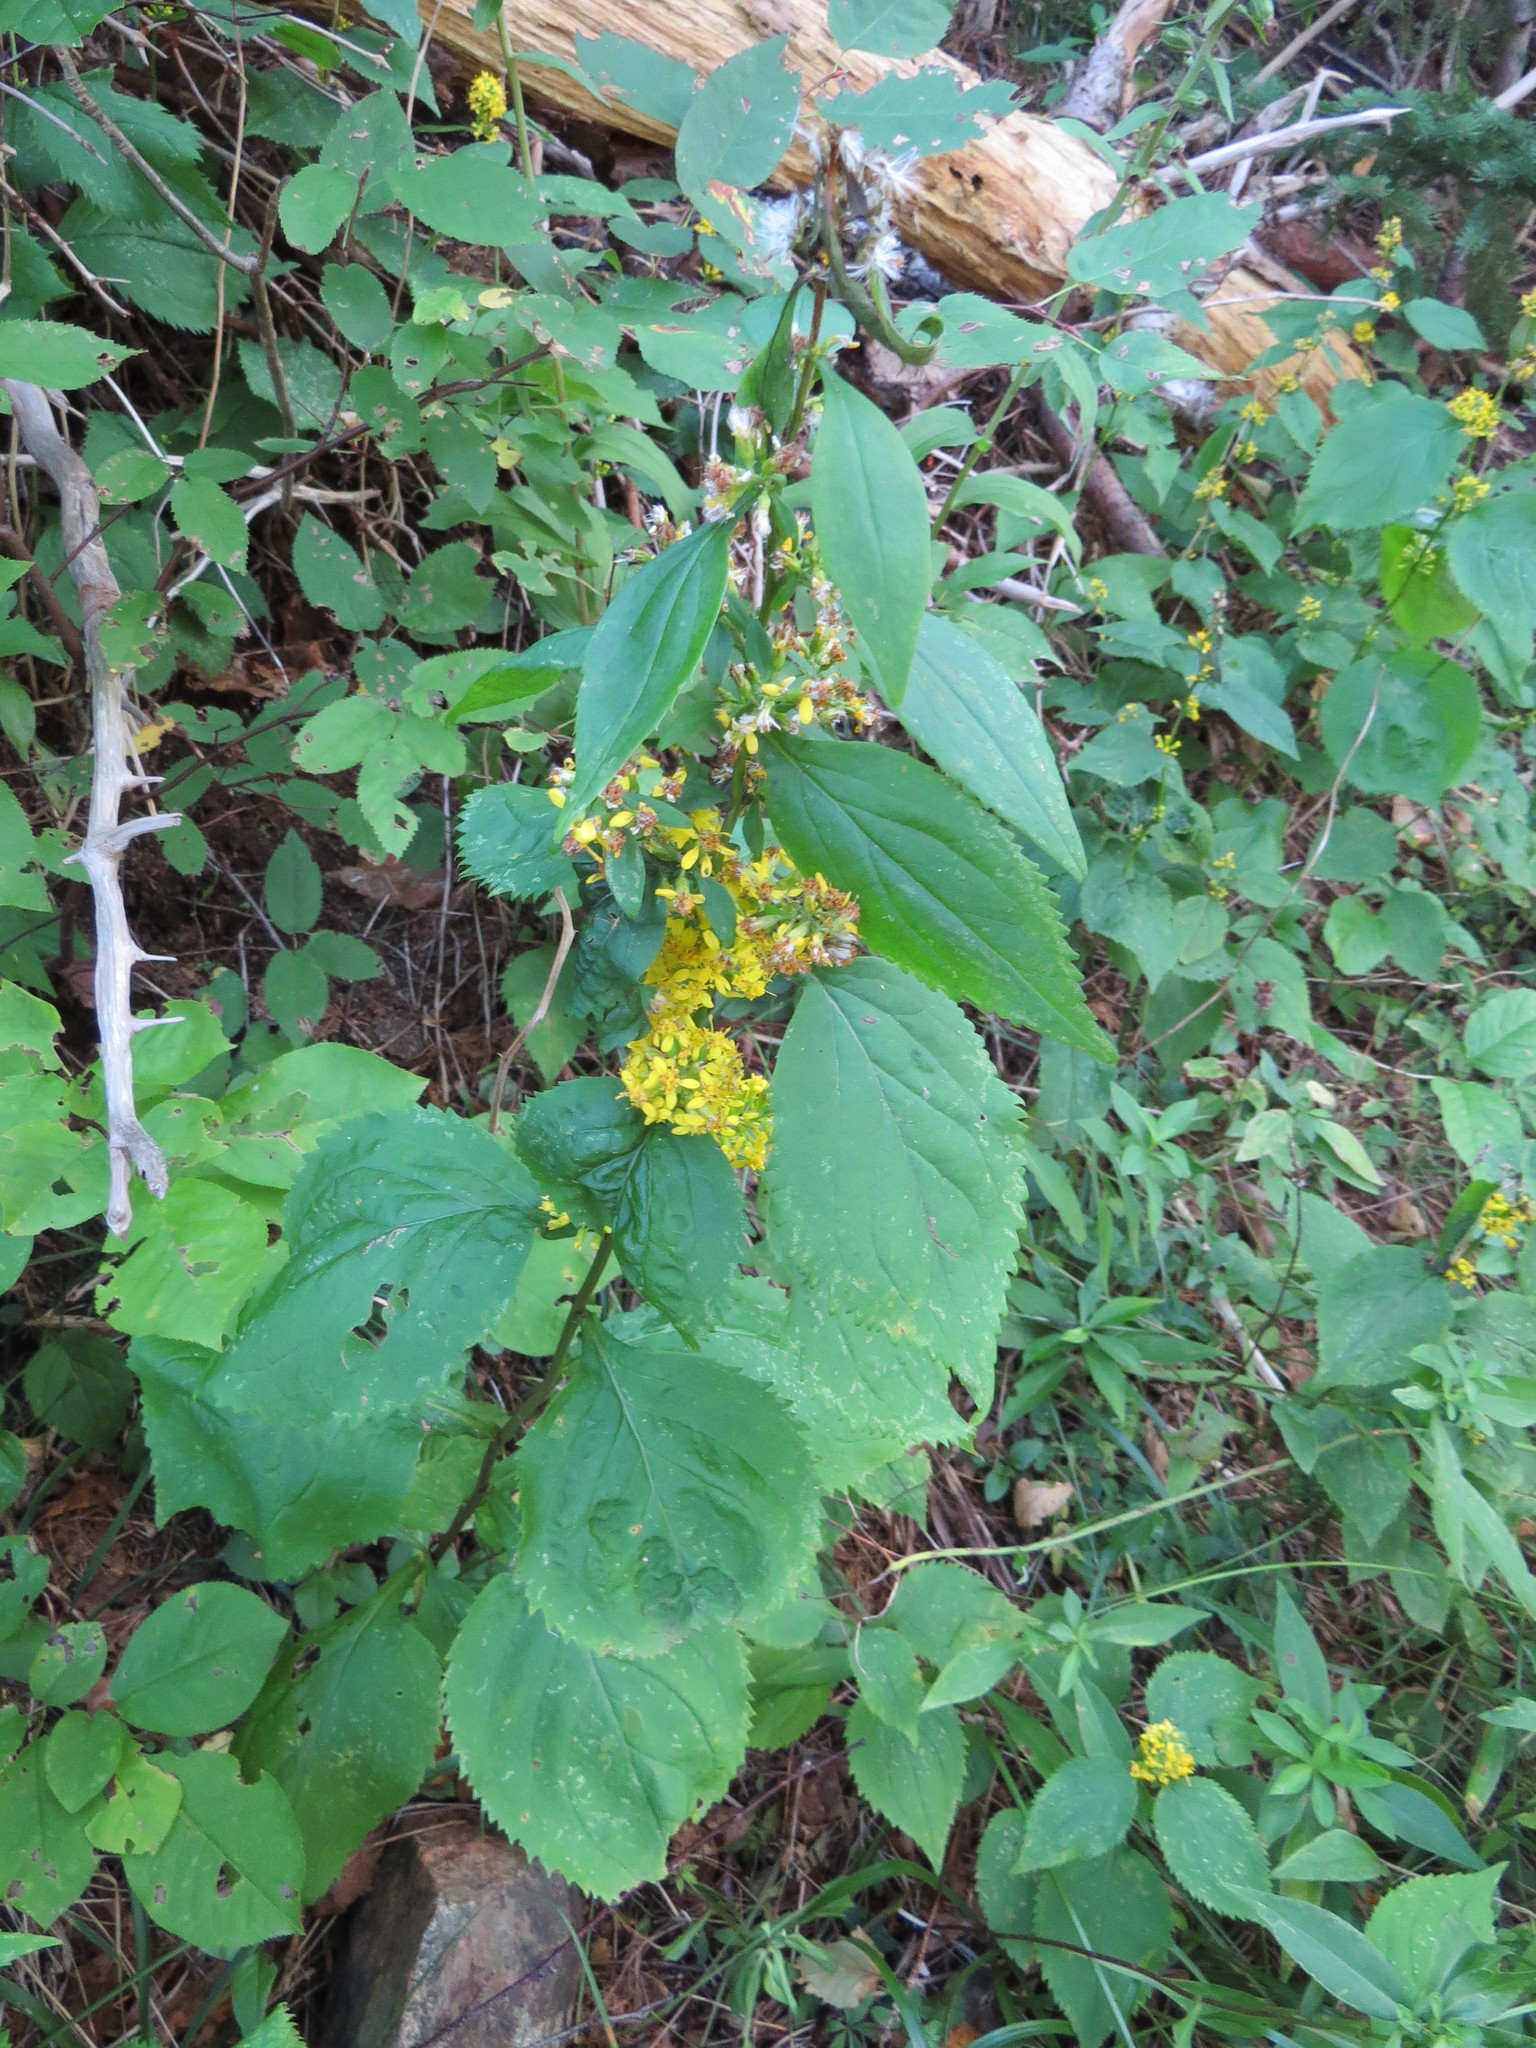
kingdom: Plantae
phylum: Tracheophyta
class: Magnoliopsida
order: Asterales
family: Asteraceae
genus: Solidago
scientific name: Solidago flexicaulis
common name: Zig-zag goldenrod
